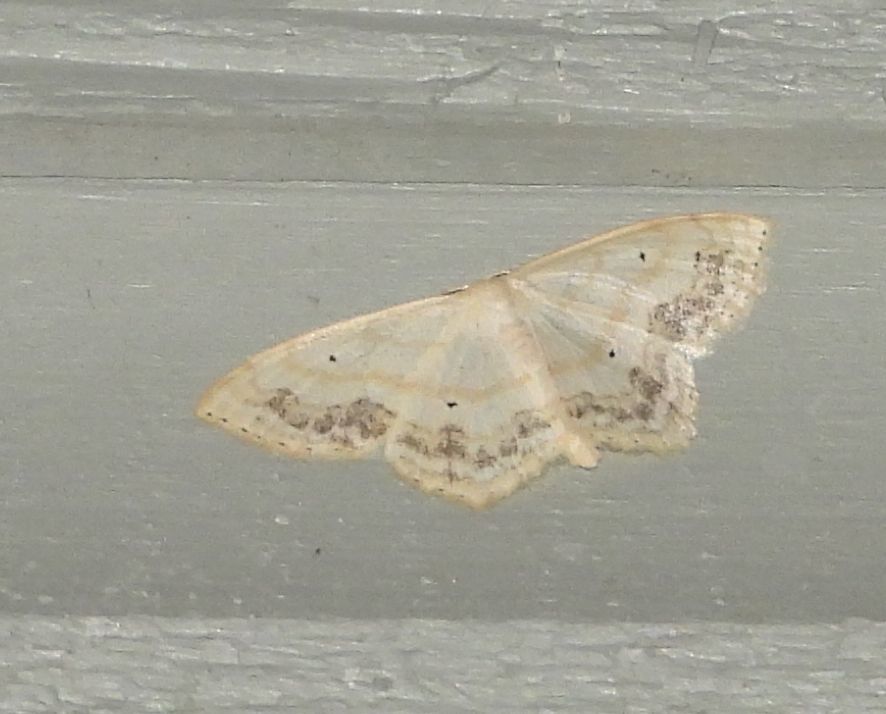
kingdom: Animalia
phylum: Arthropoda
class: Insecta
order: Lepidoptera
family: Geometridae
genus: Scopula
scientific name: Scopula limboundata
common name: Large lace border
